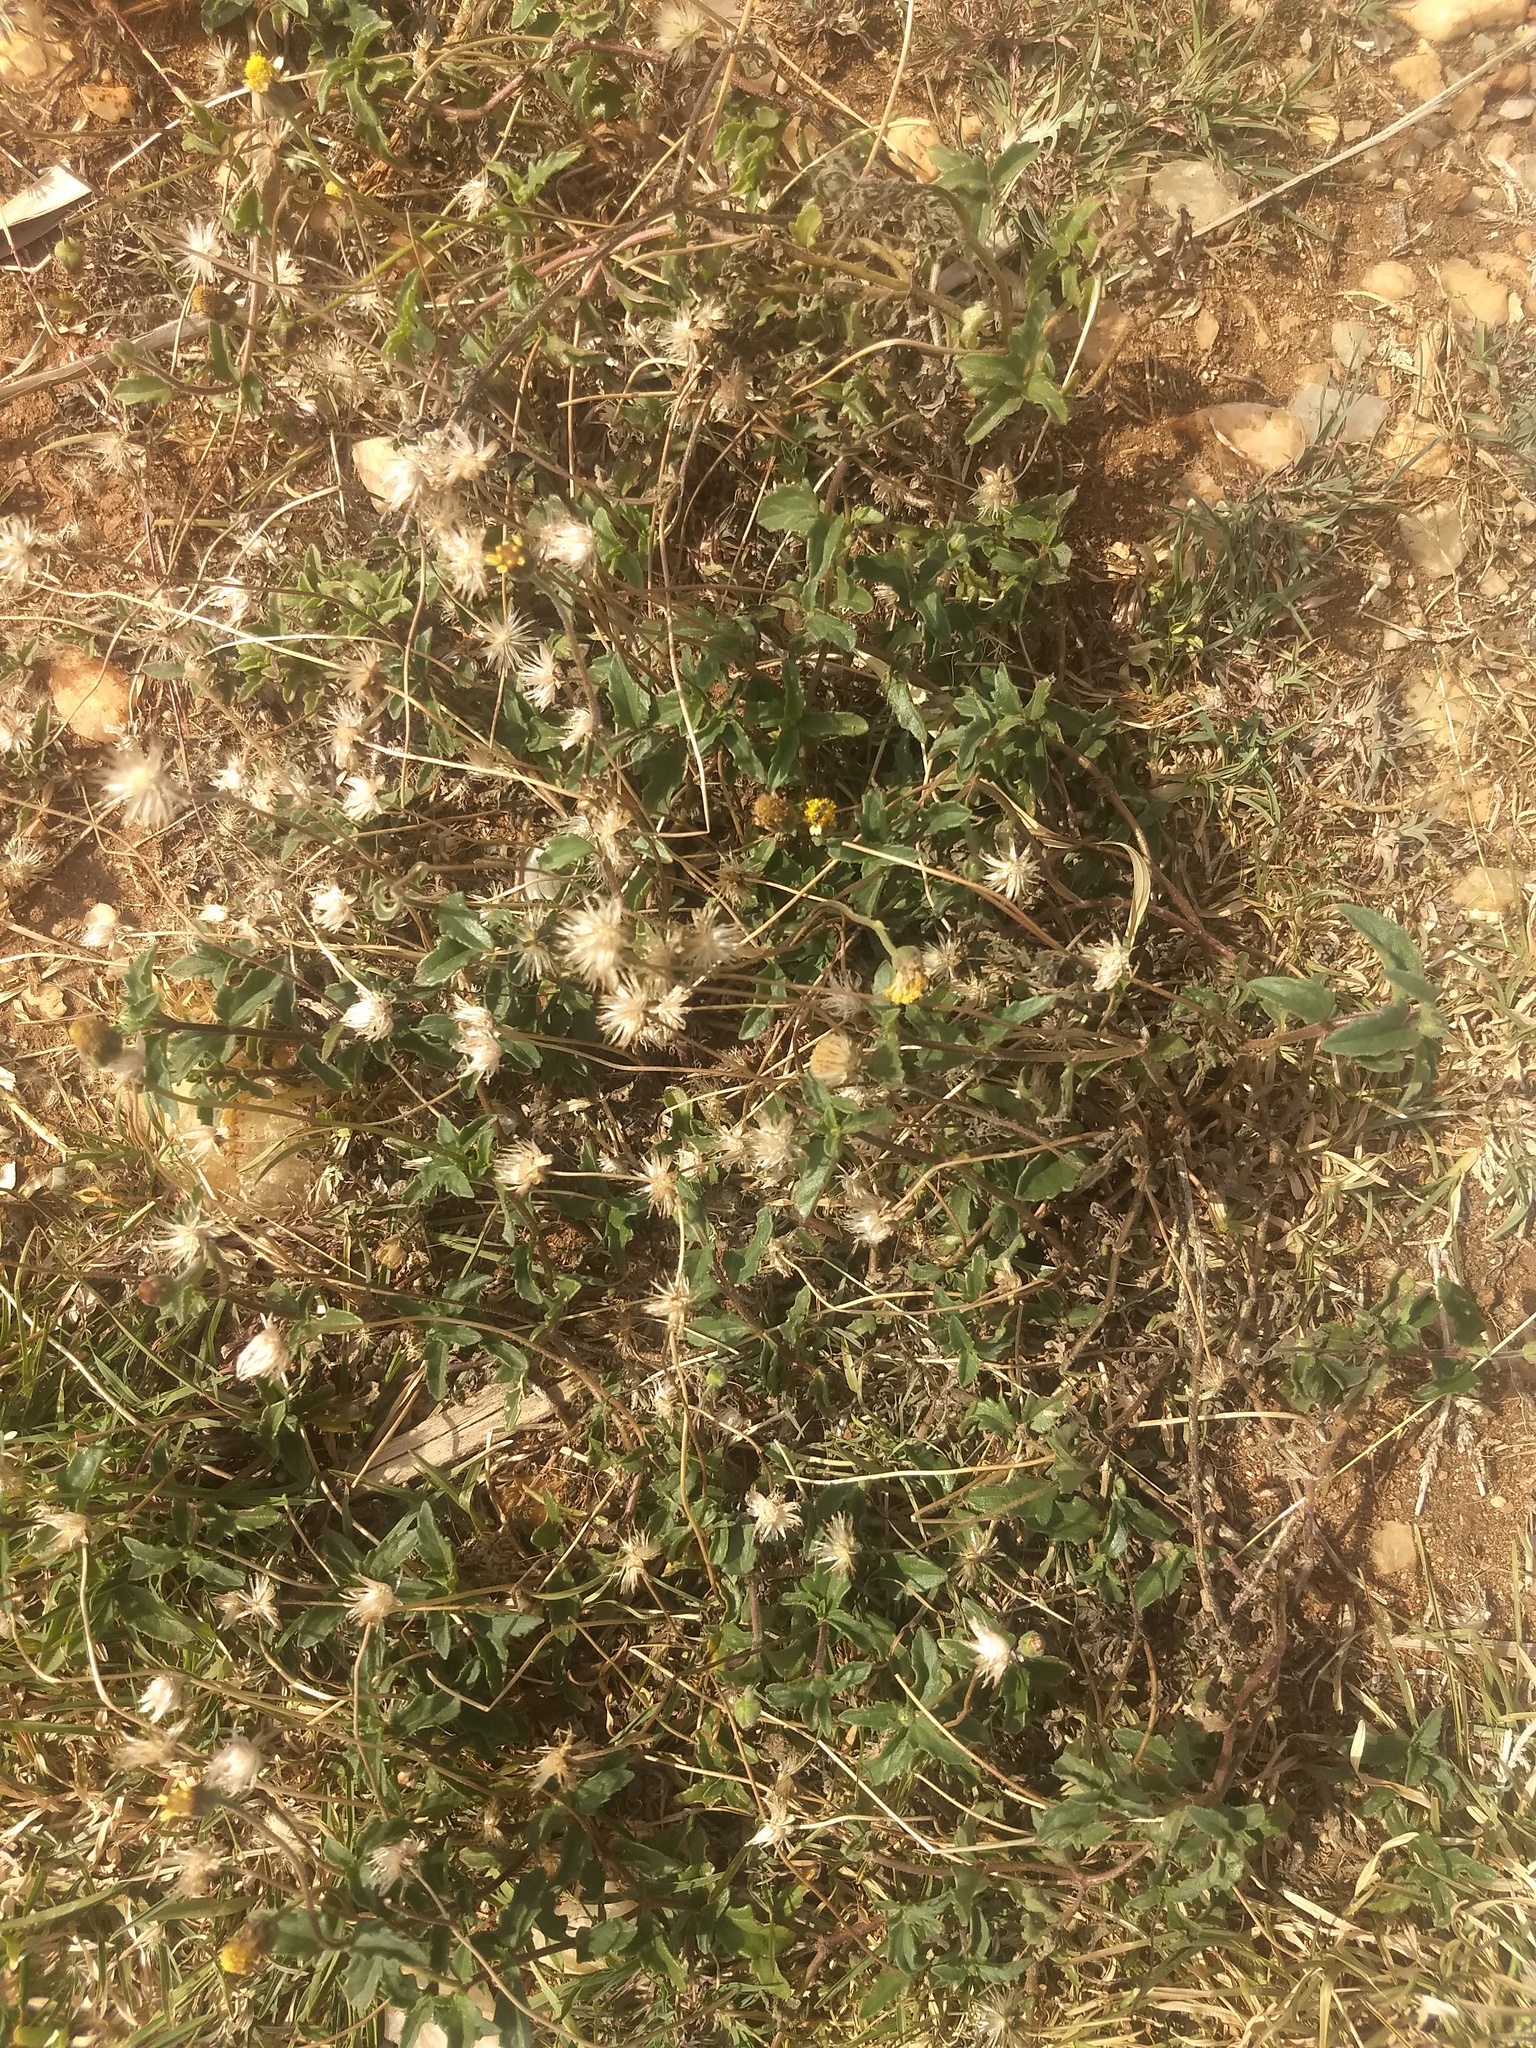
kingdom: Plantae
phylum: Tracheophyta
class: Magnoliopsida
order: Asterales
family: Asteraceae
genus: Tridax
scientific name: Tridax procumbens
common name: Coatbuttons
